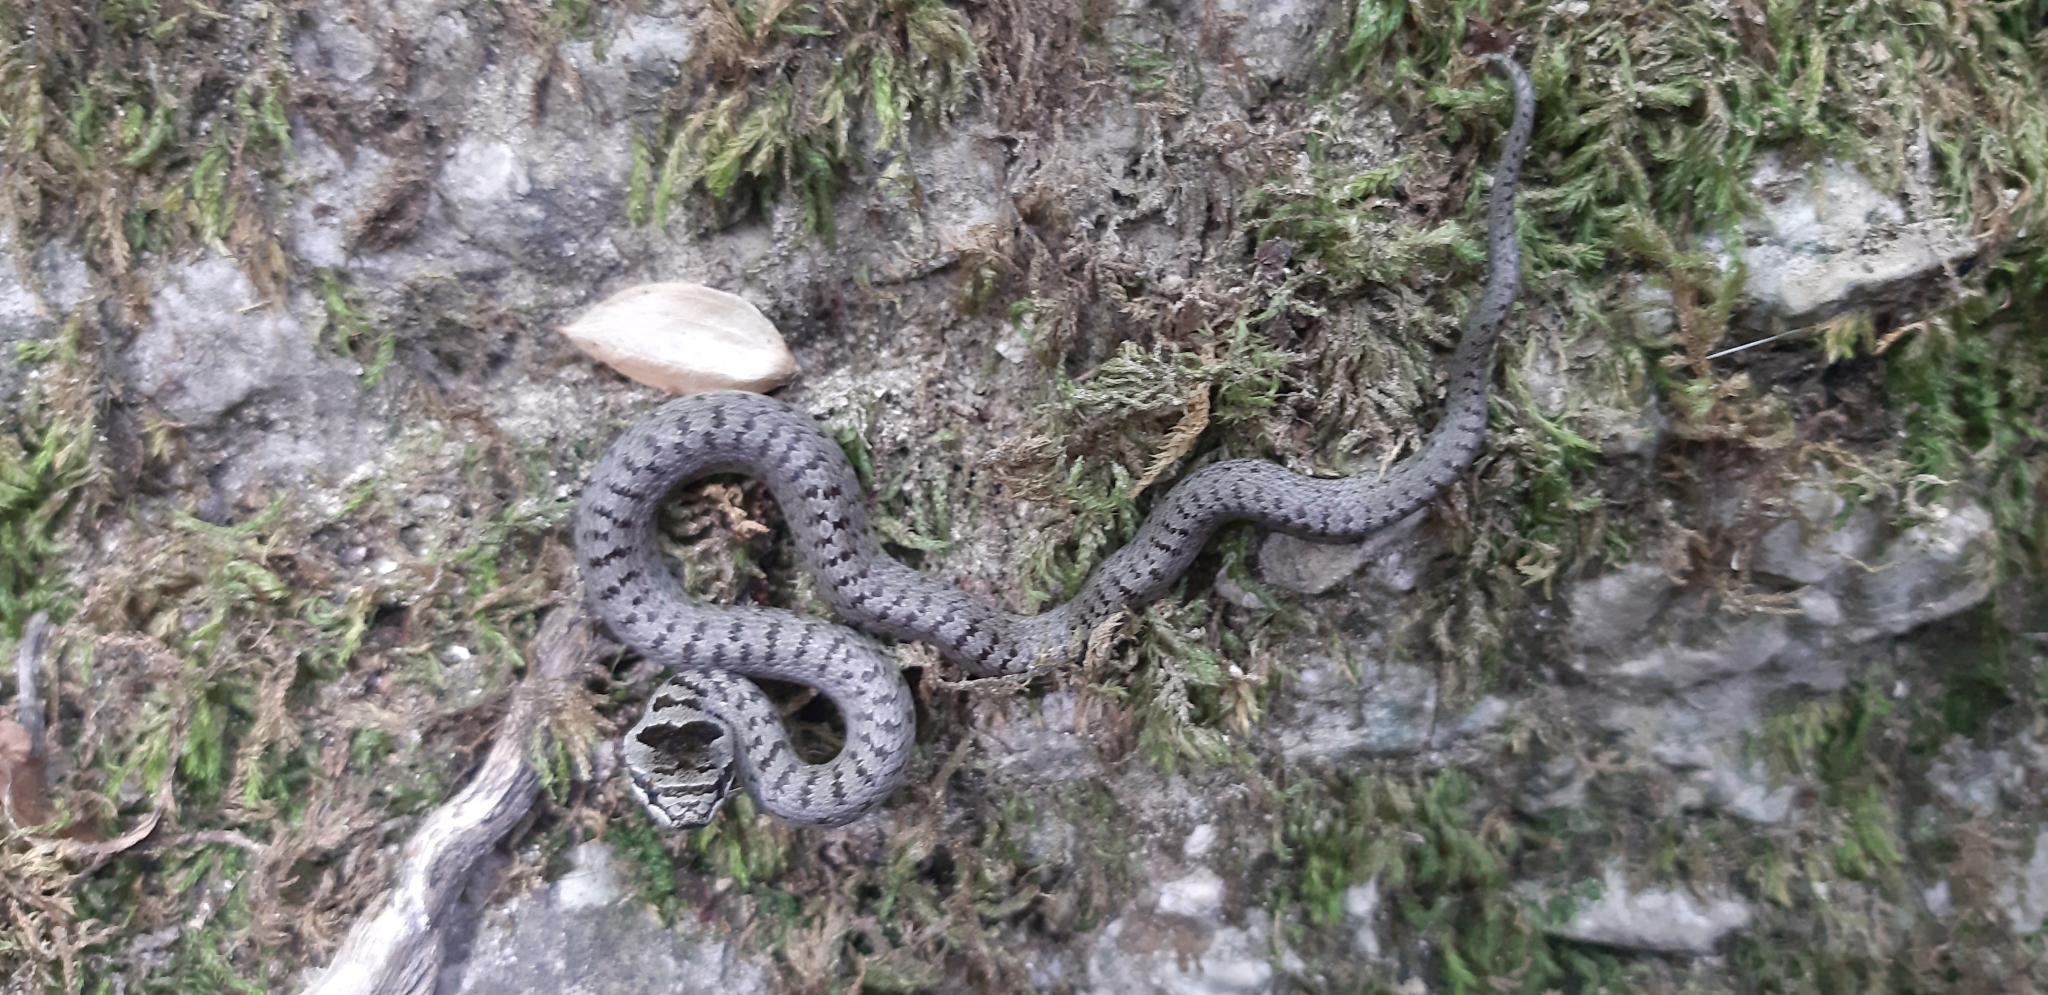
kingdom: Animalia
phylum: Chordata
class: Squamata
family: Colubridae
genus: Coronella
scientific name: Coronella austriaca
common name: Smooth snake
